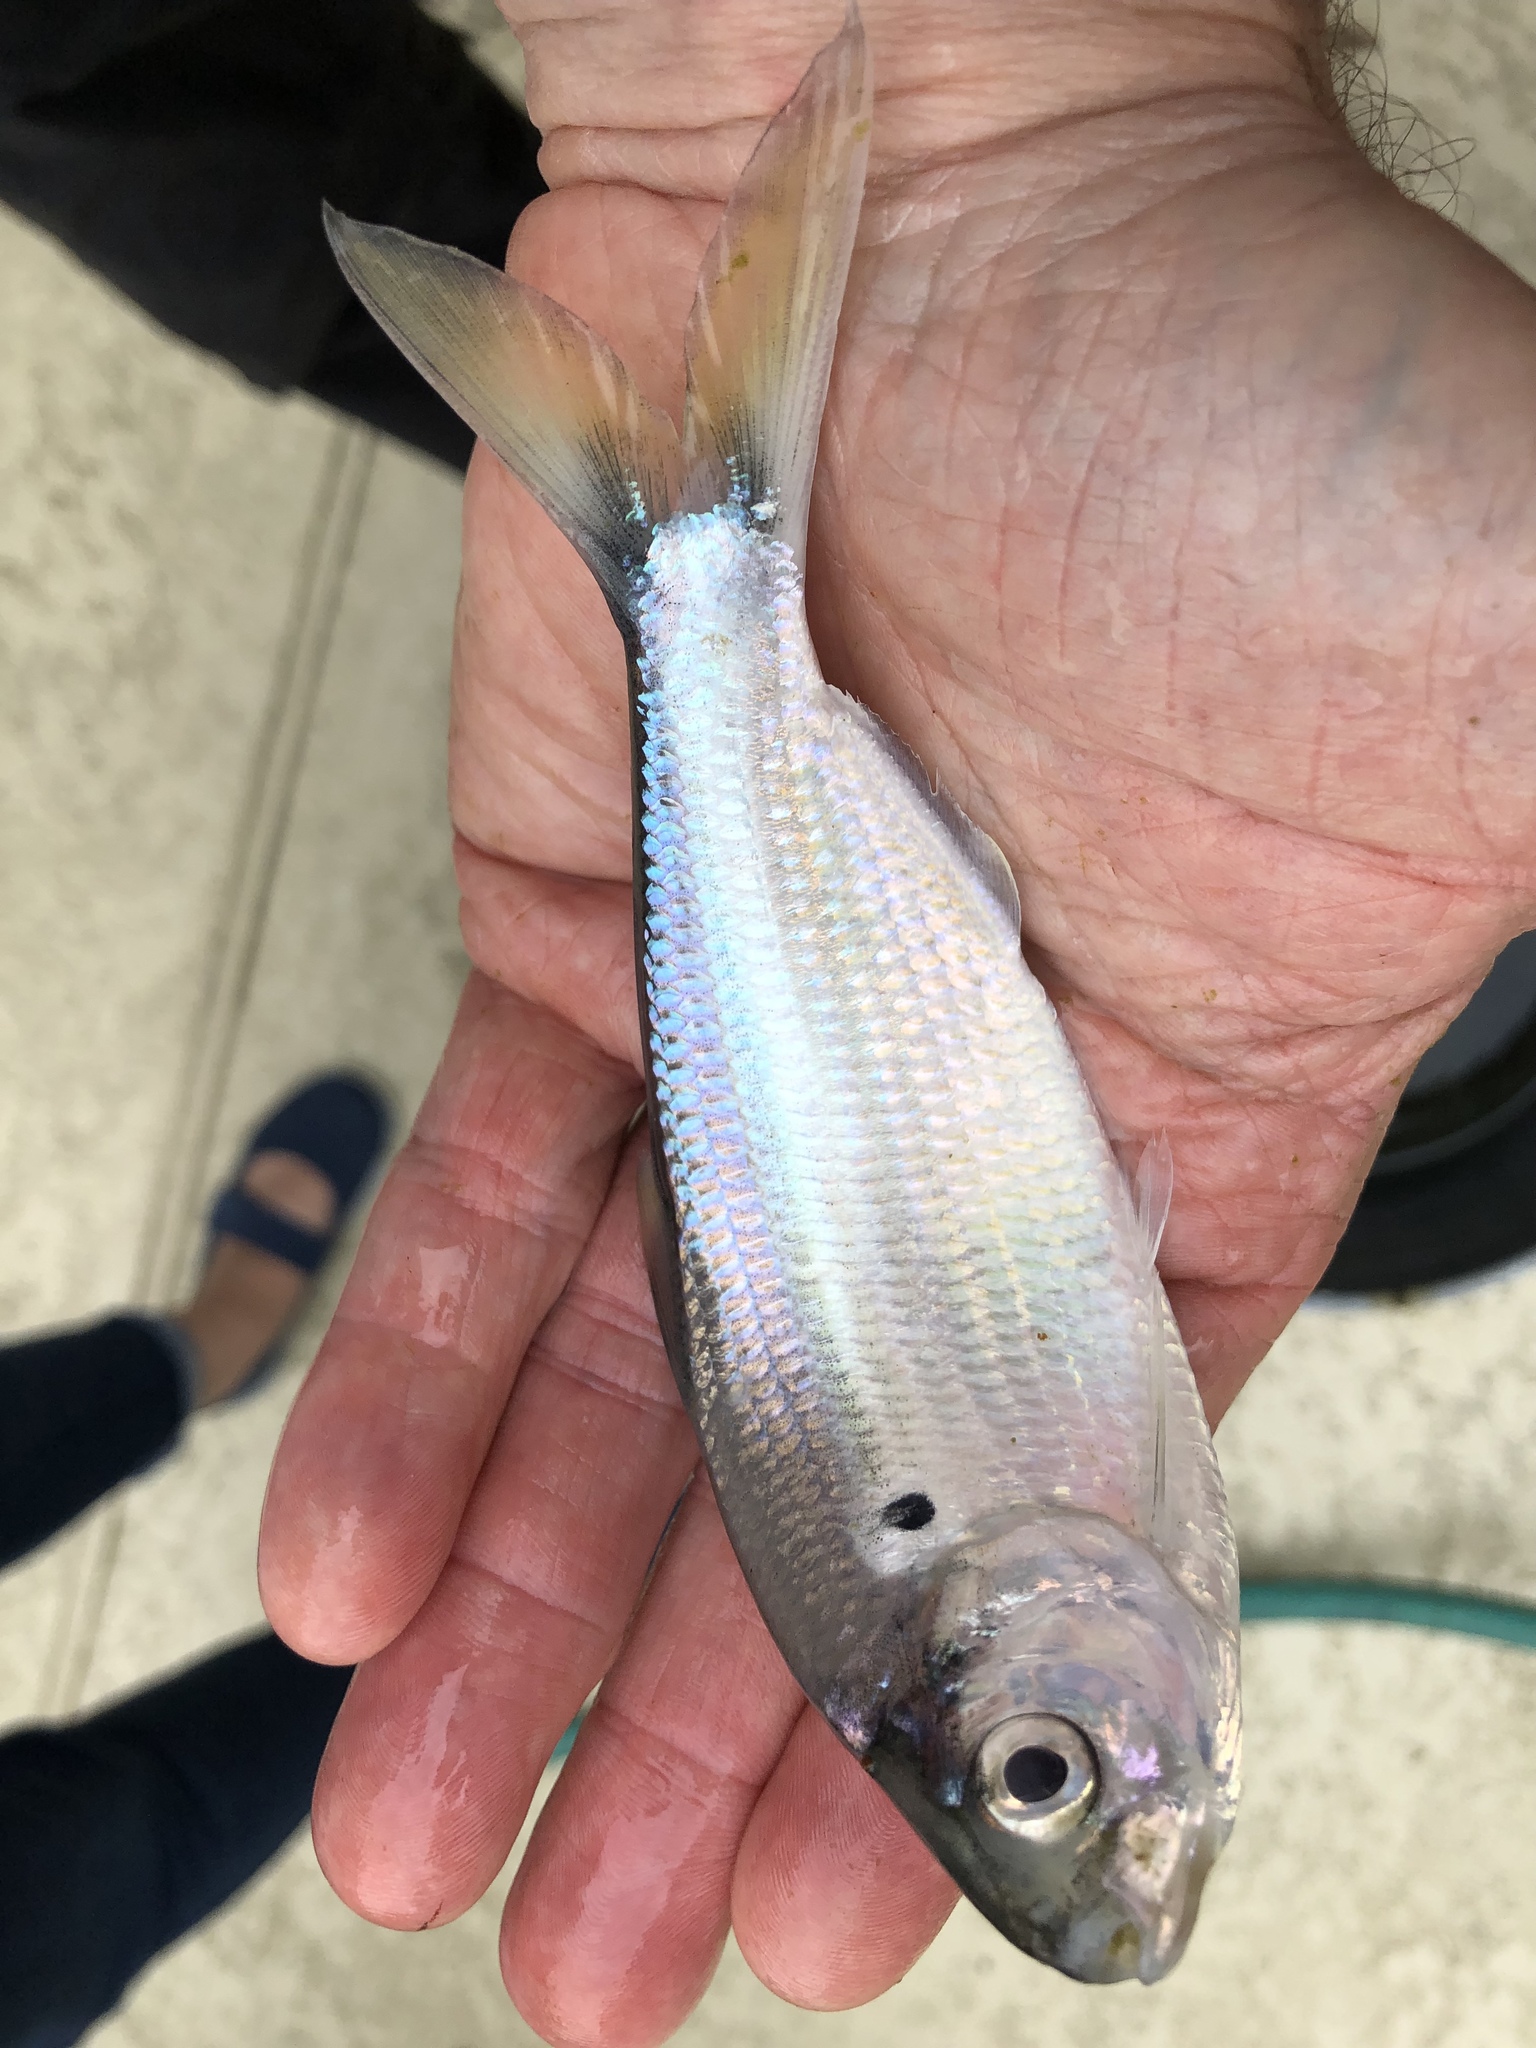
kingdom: Animalia
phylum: Chordata
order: Clupeiformes
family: Clupeidae
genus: Dorosoma
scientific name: Dorosoma cepedianum
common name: Gizzard shad
